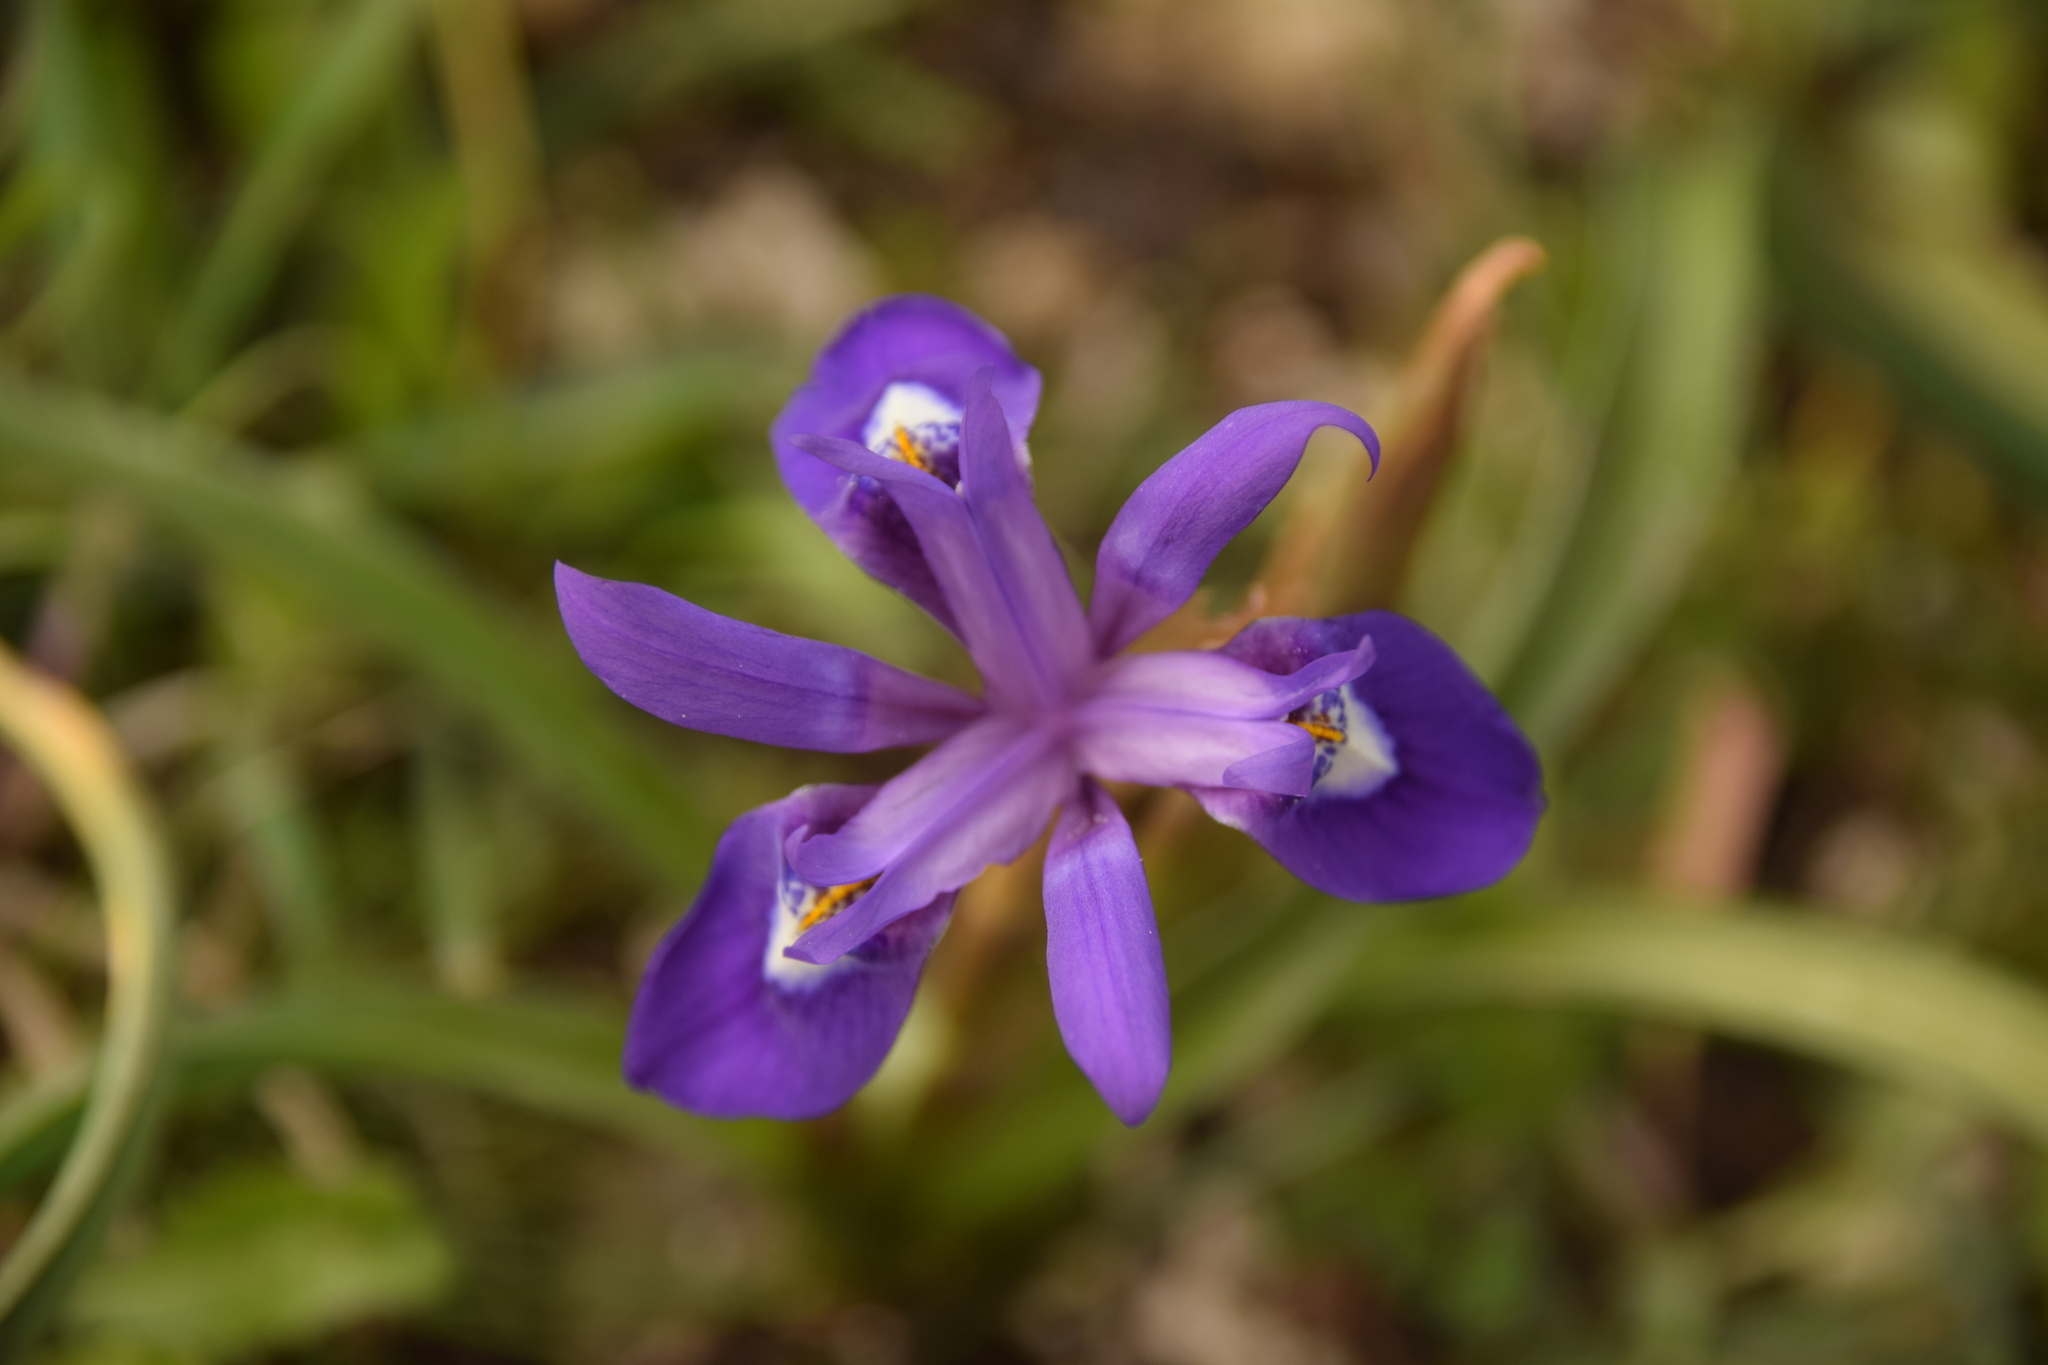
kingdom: Plantae
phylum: Tracheophyta
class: Liliopsida
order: Asparagales
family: Iridaceae
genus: Moraea
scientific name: Moraea sisyrinchium
